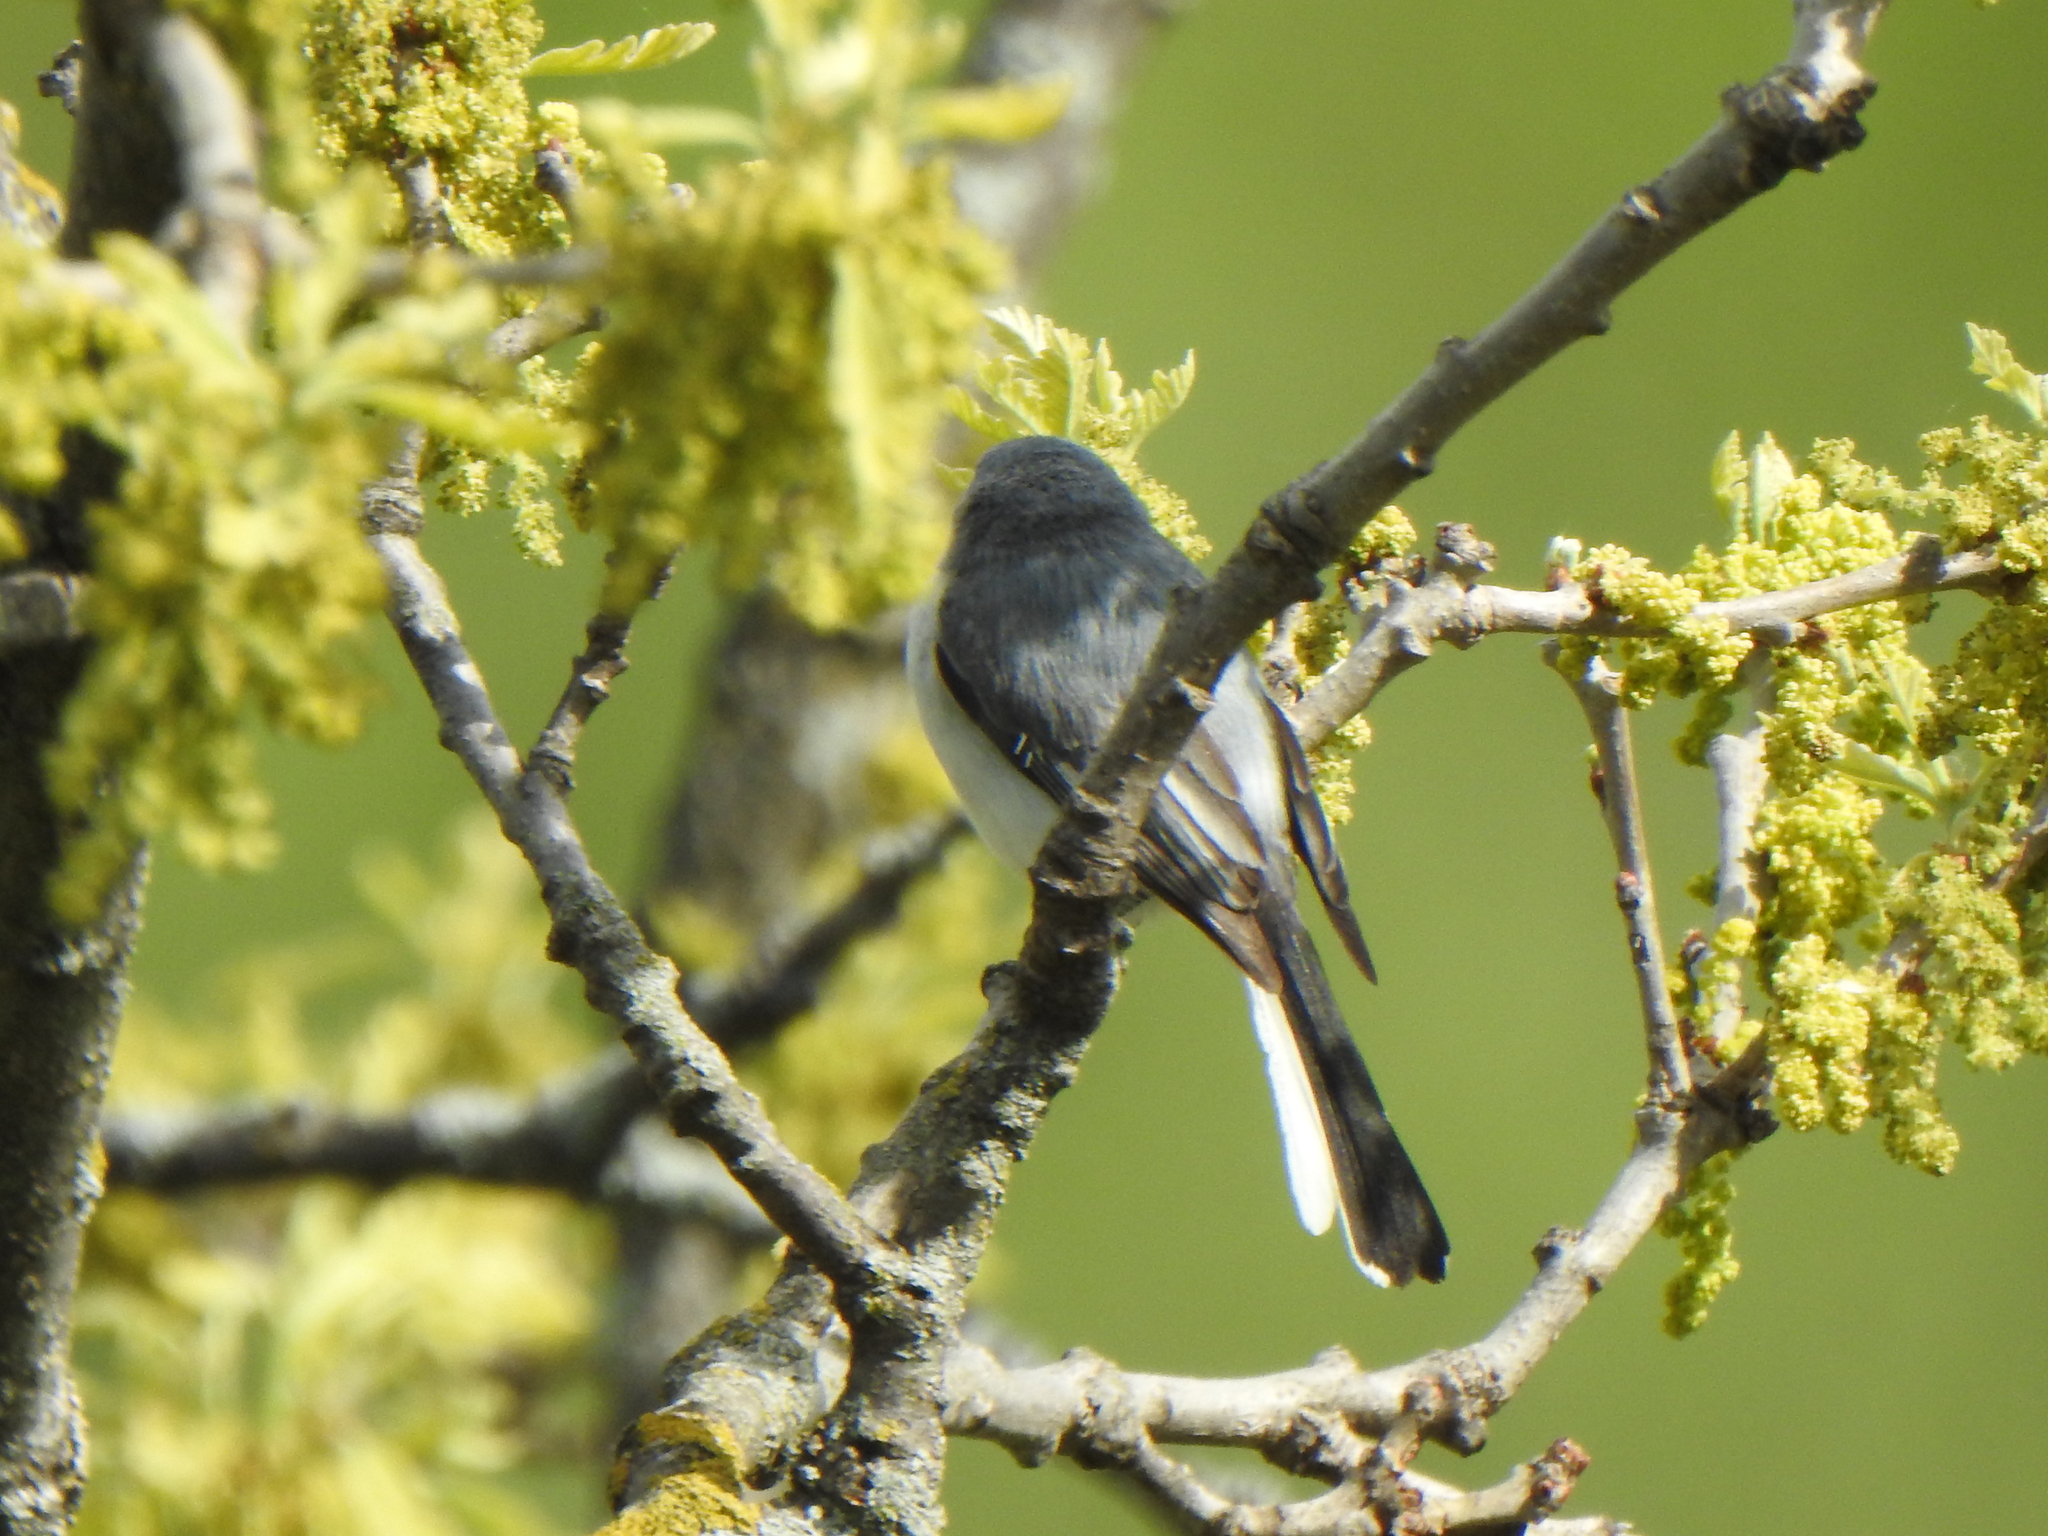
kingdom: Animalia
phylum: Chordata
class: Aves
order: Passeriformes
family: Polioptilidae
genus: Polioptila
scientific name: Polioptila caerulea
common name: Blue-gray gnatcatcher
